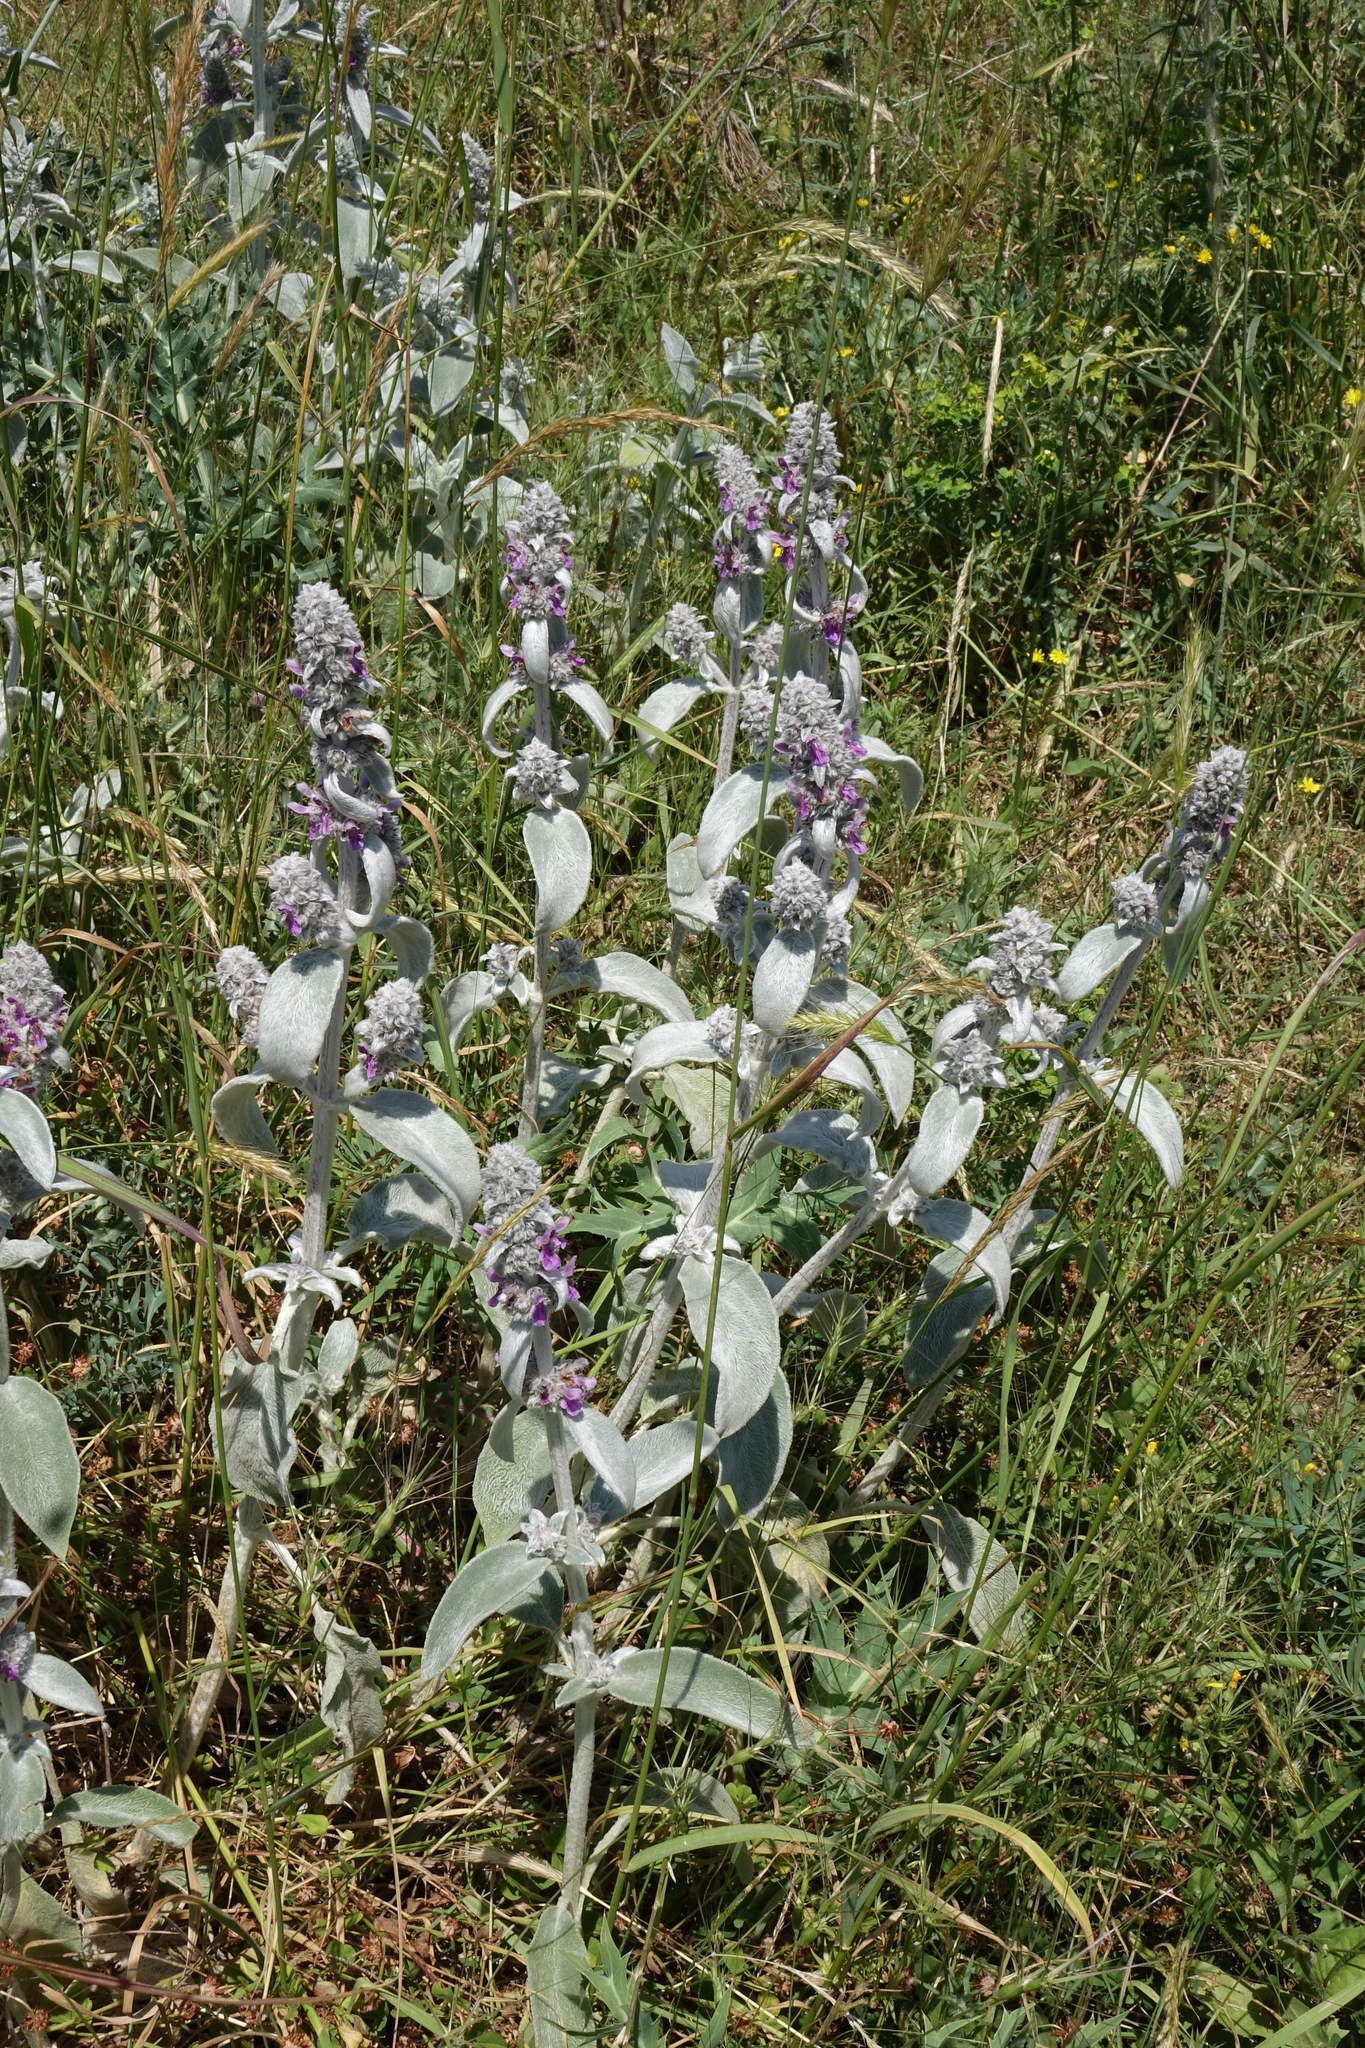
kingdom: Plantae
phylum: Tracheophyta
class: Magnoliopsida
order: Lamiales
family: Lamiaceae
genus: Stachys
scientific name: Stachys byzantina
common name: Lamb's-ear
